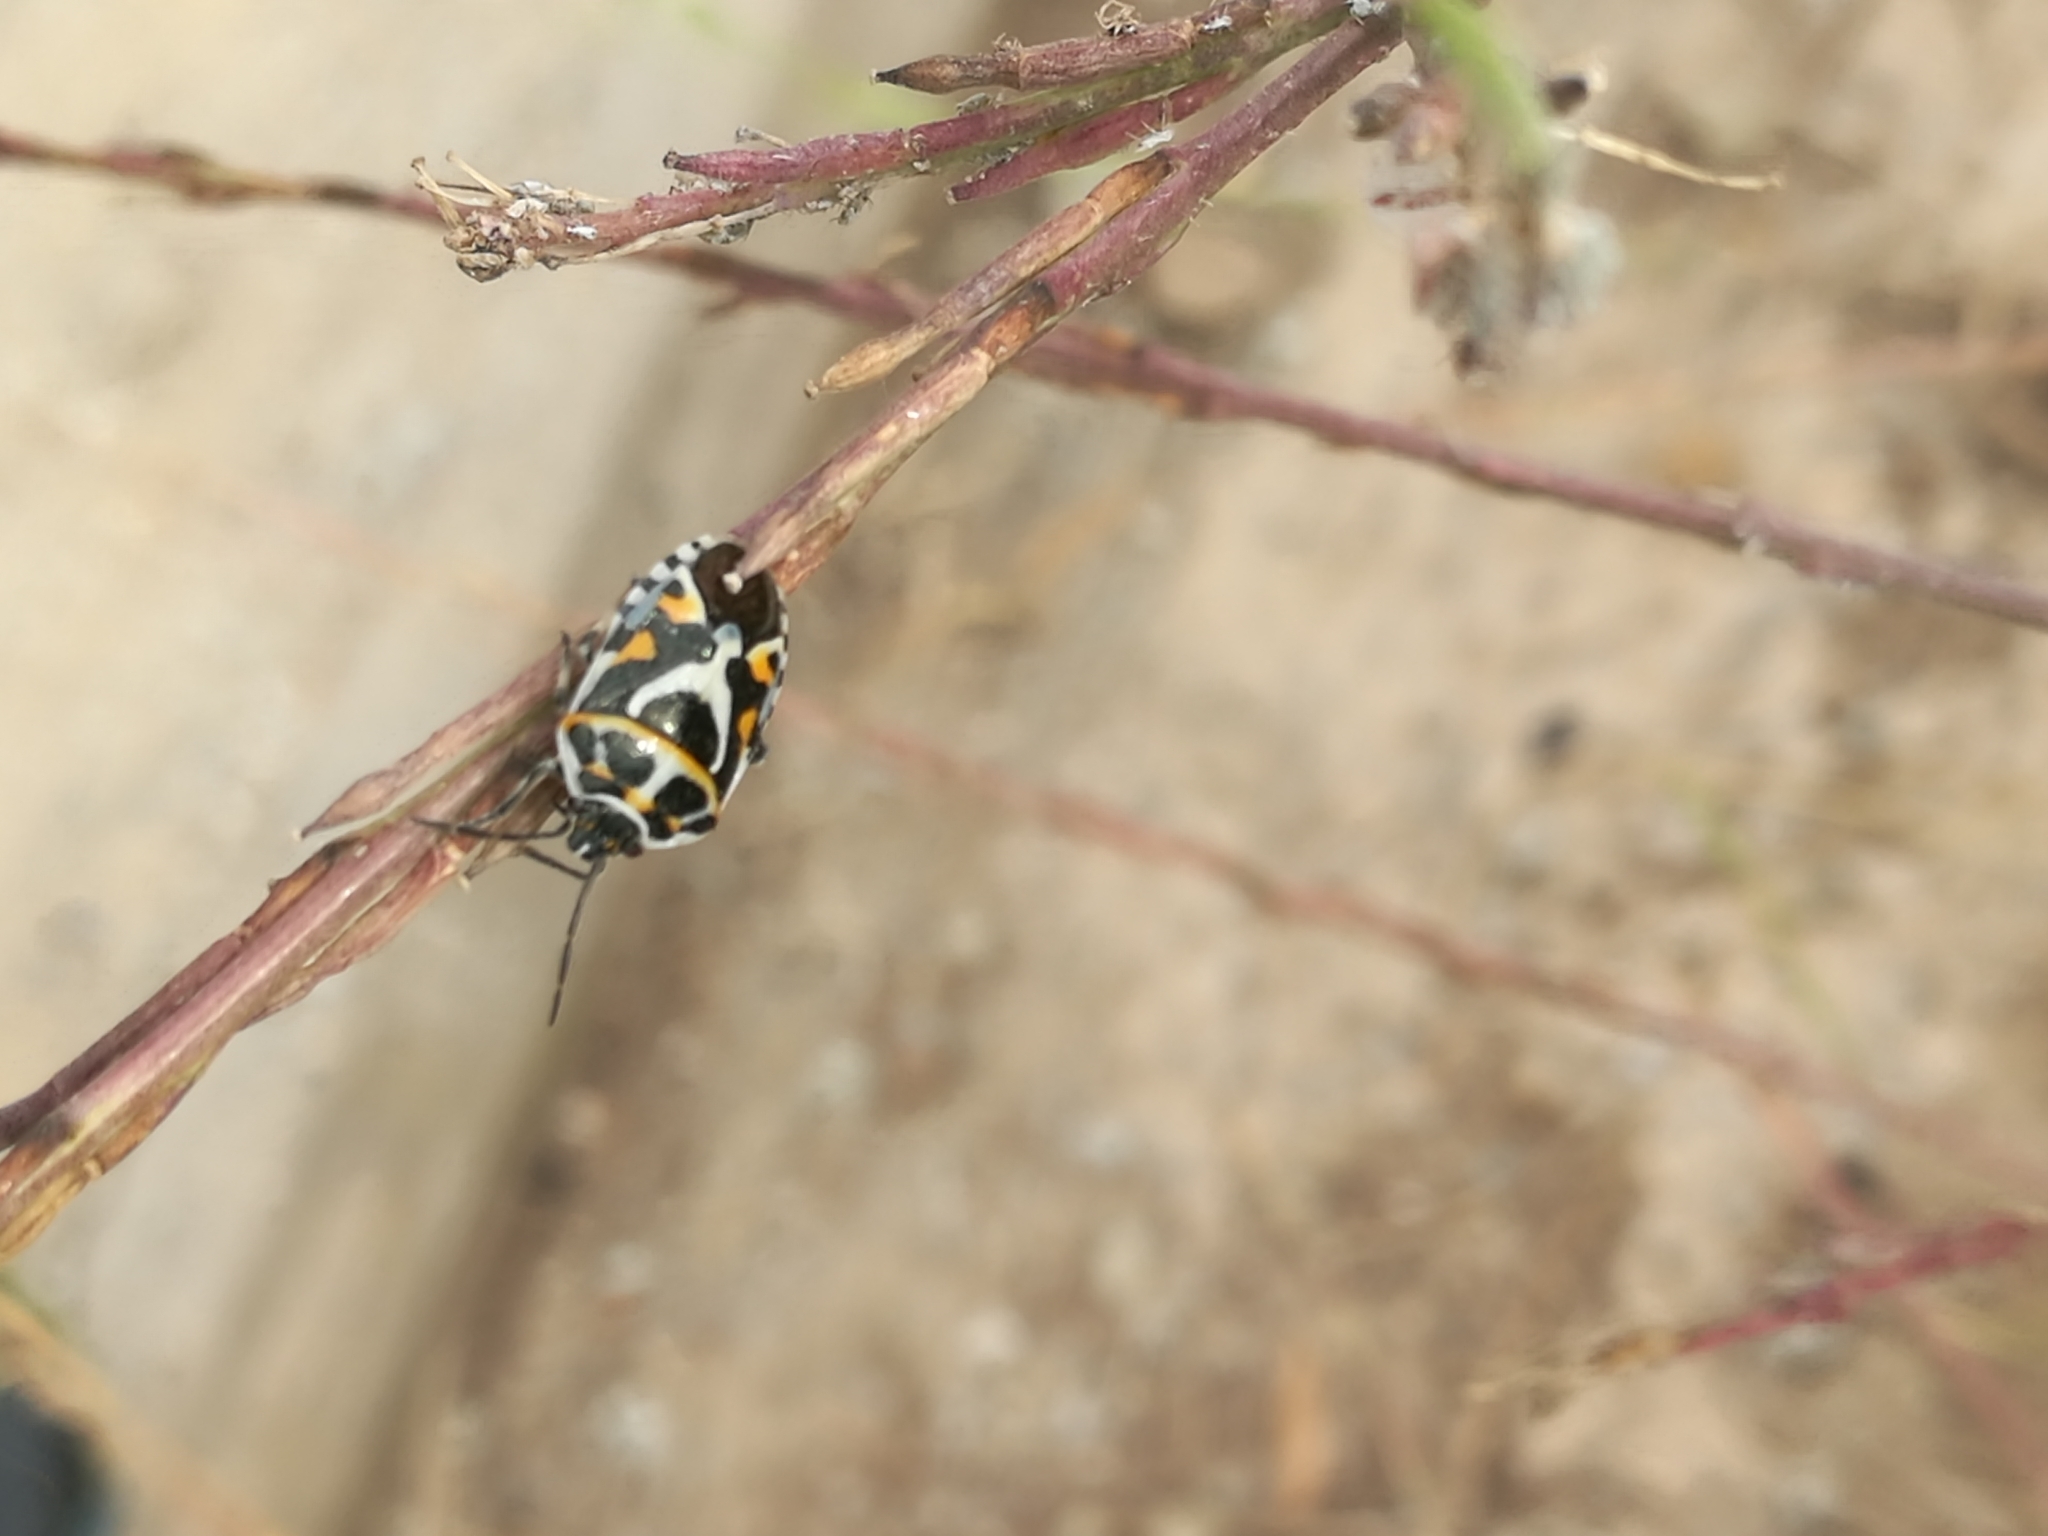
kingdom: Animalia
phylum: Arthropoda
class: Insecta
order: Hemiptera
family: Pentatomidae
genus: Eurydema
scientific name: Eurydema ornata
